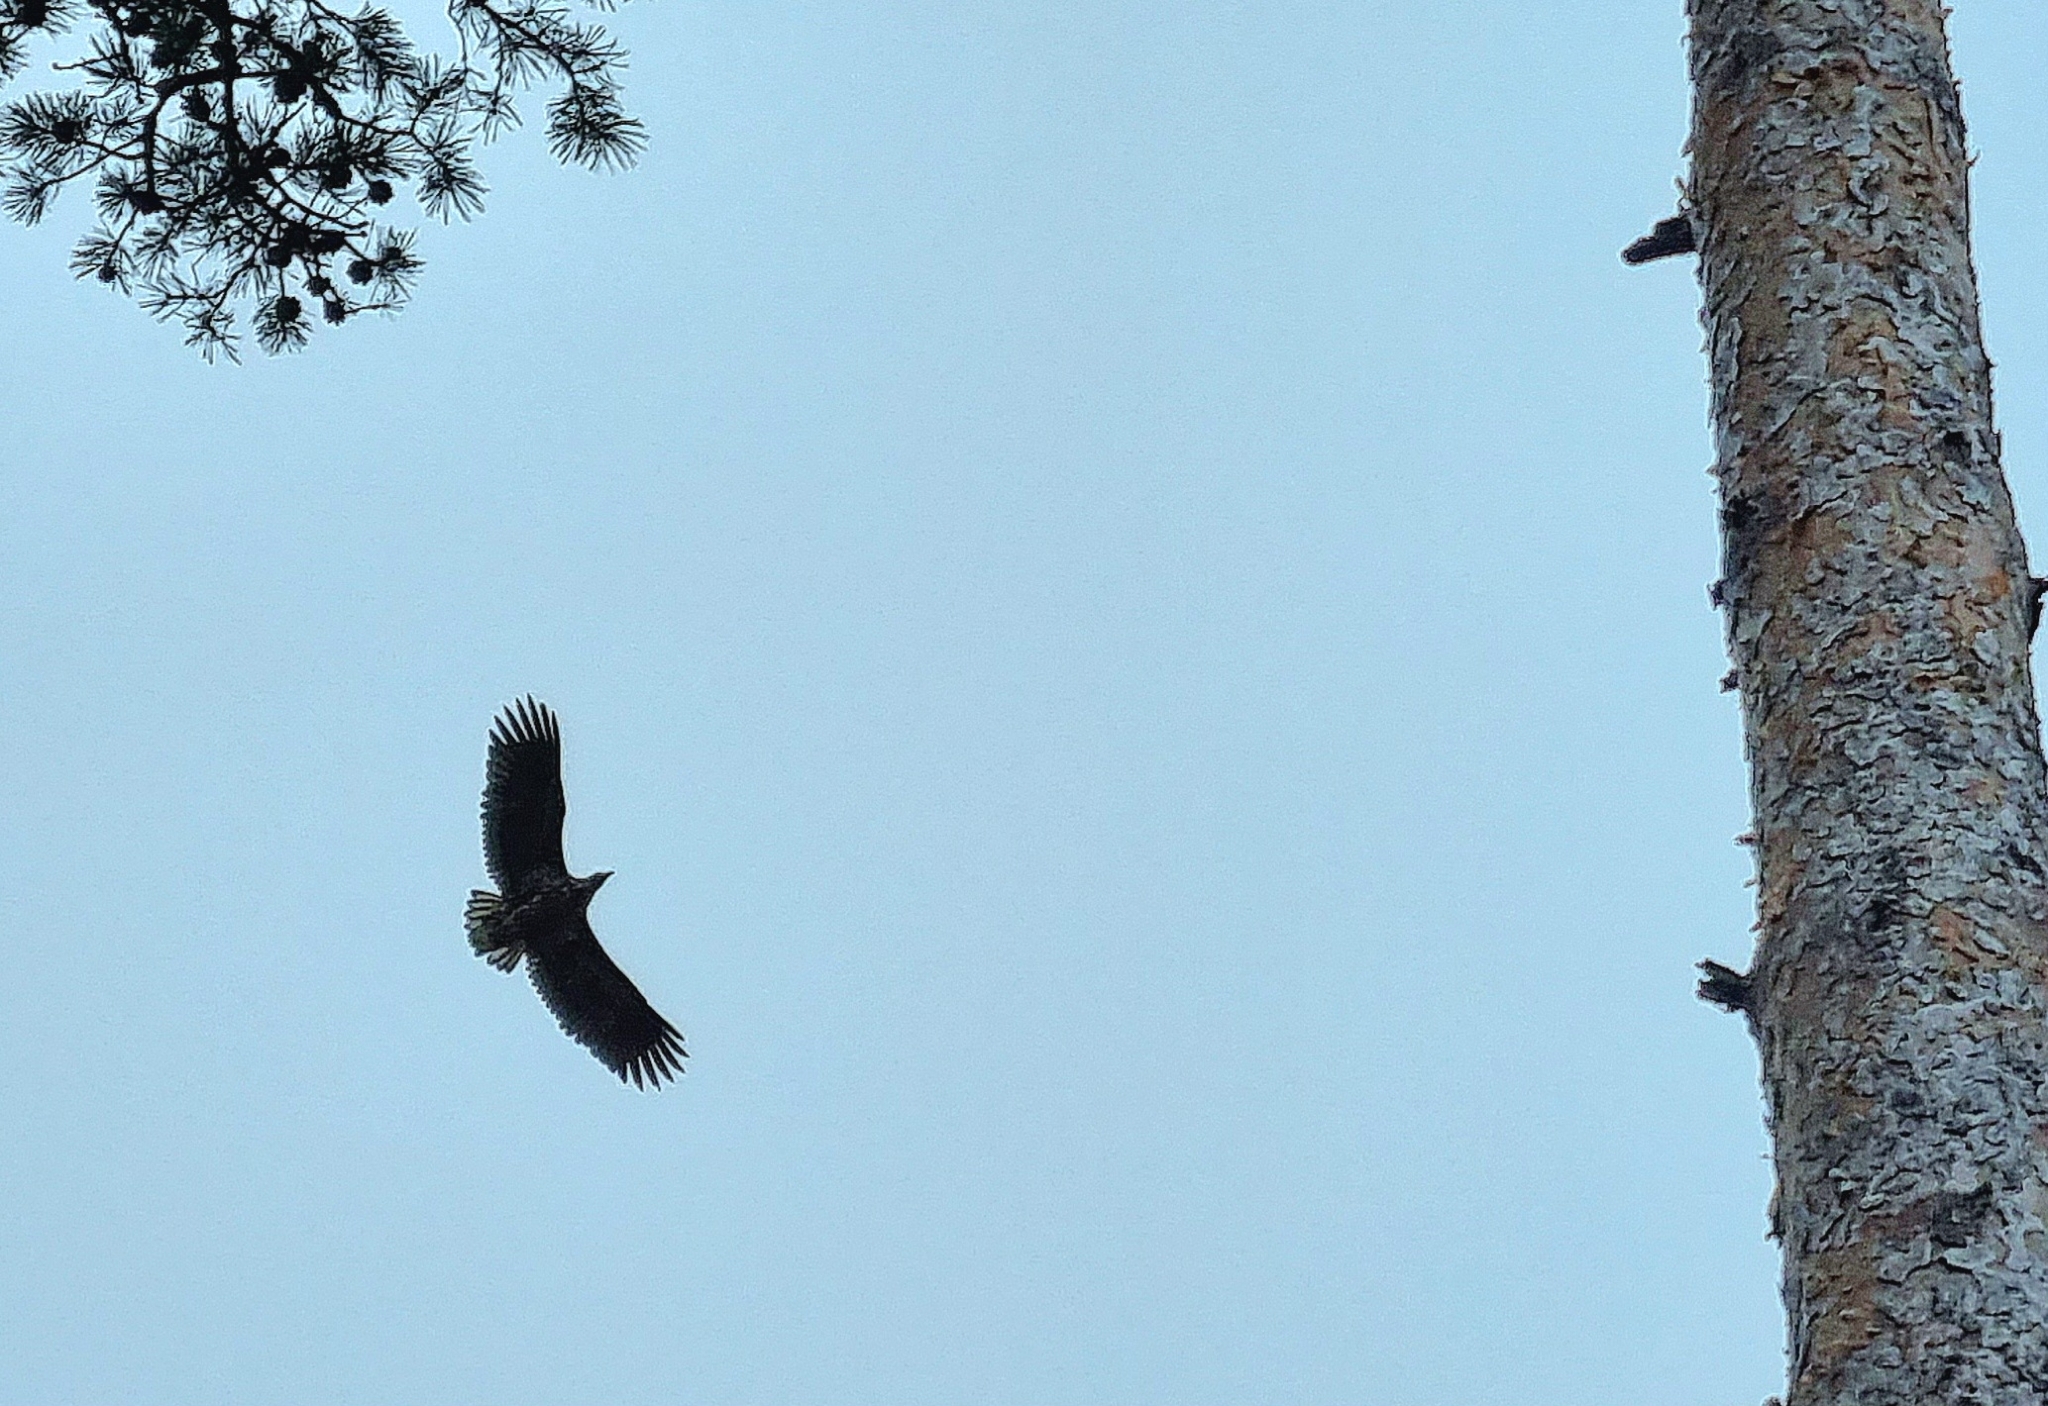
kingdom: Animalia
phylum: Chordata
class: Aves
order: Accipitriformes
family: Accipitridae
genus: Haliaeetus
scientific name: Haliaeetus albicilla
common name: White-tailed eagle
